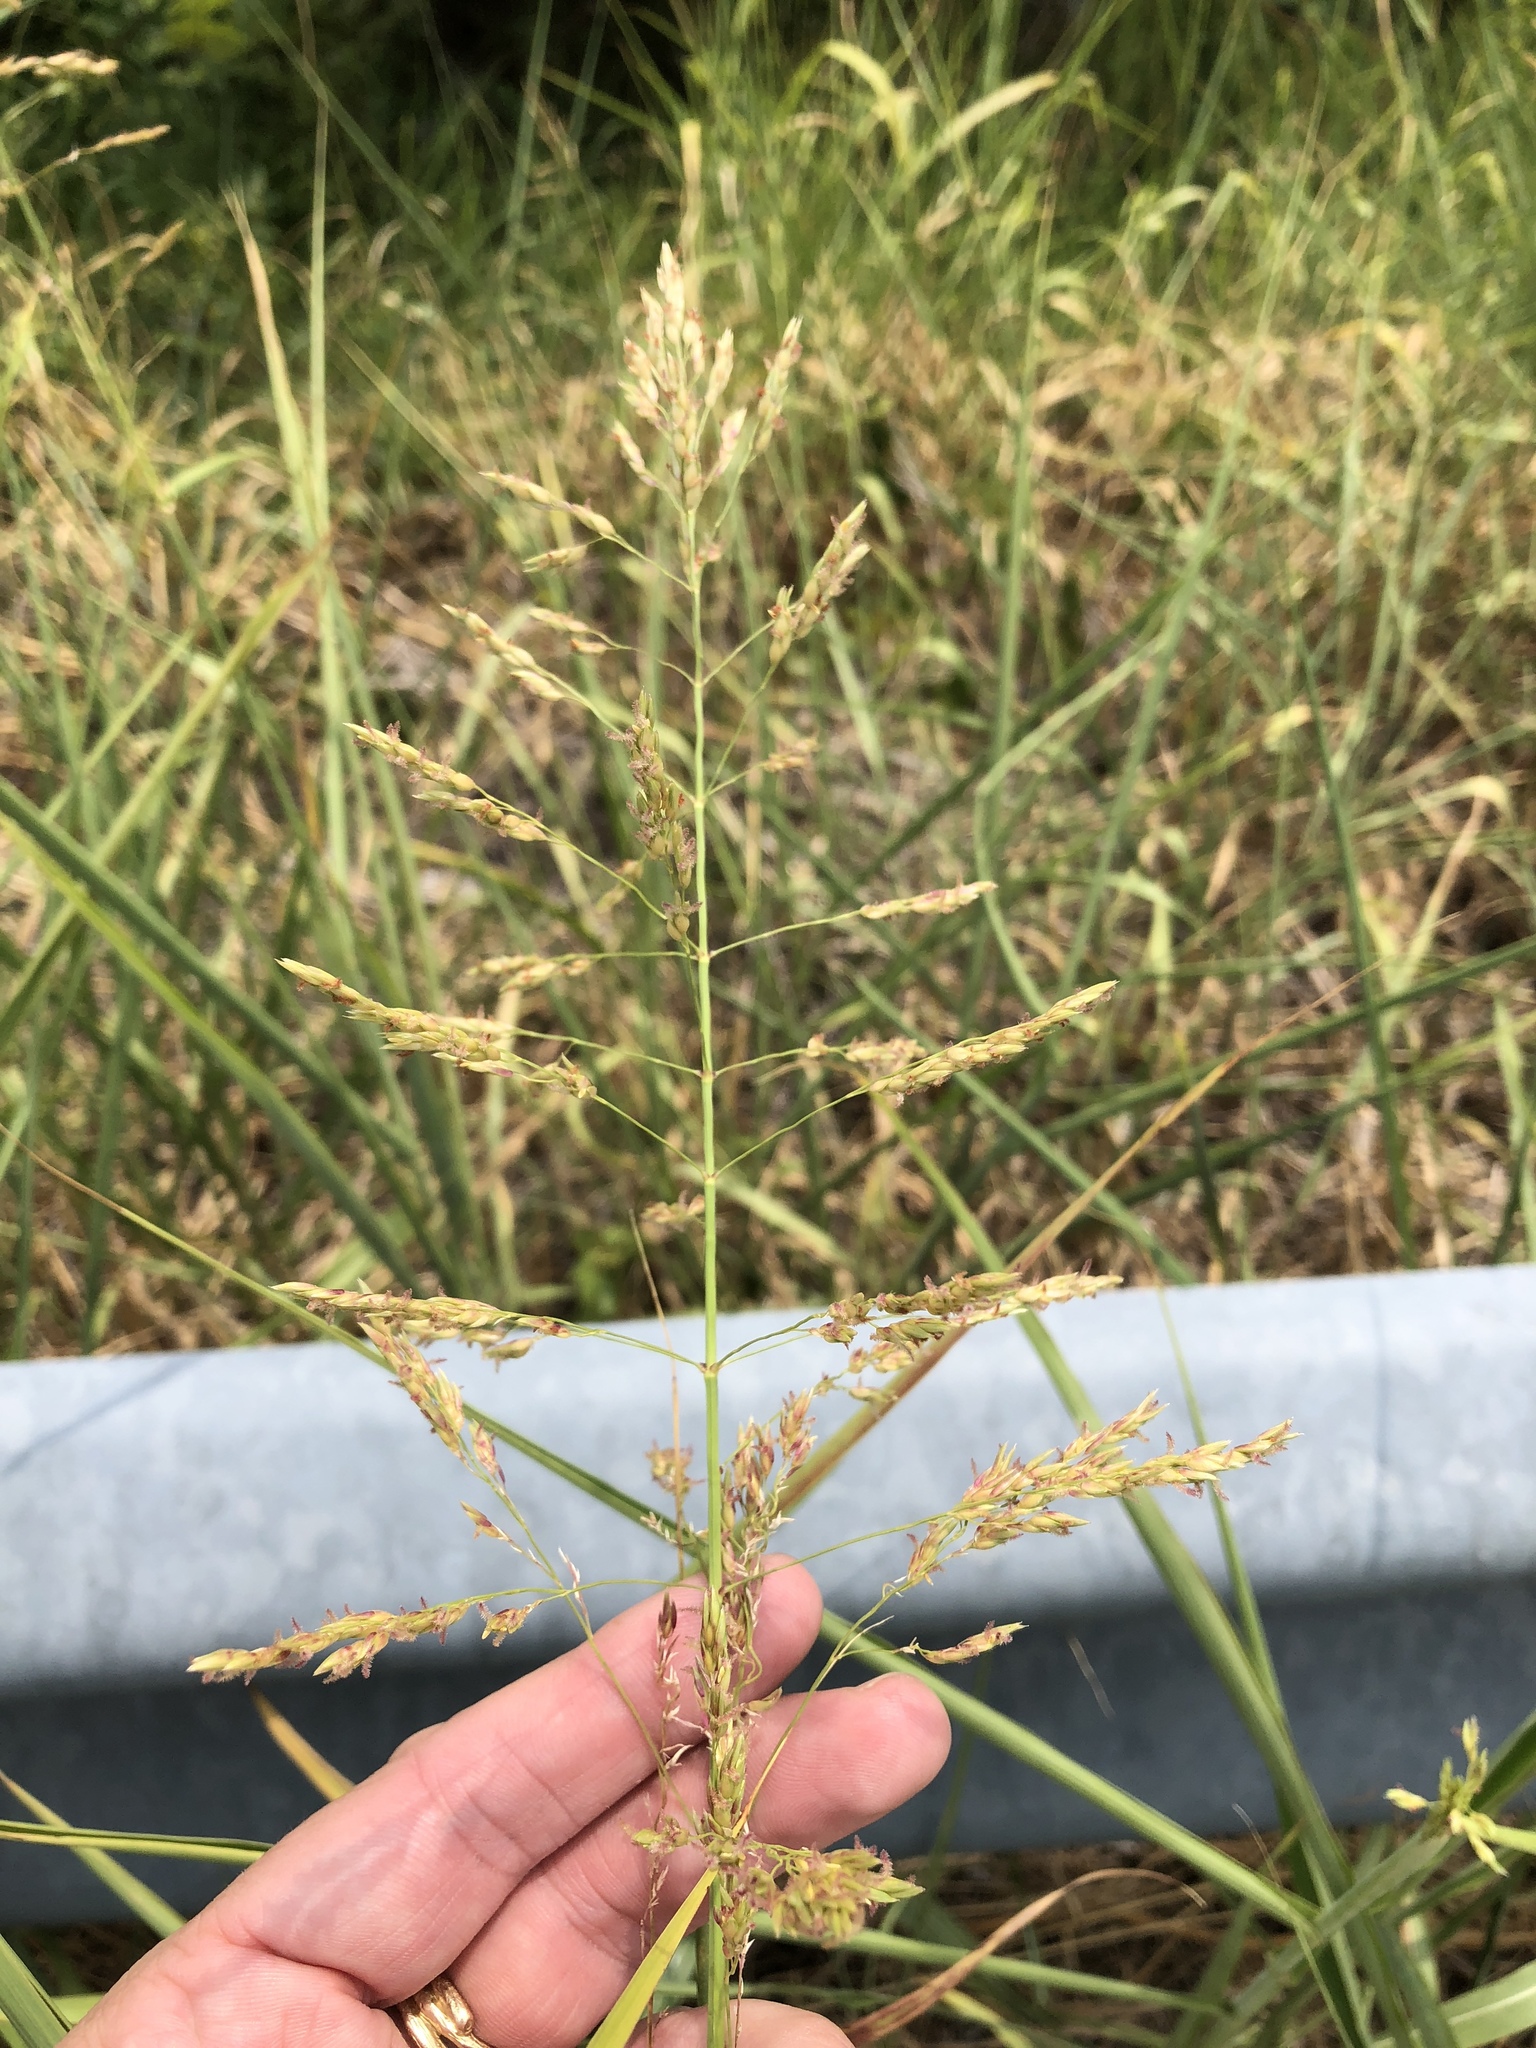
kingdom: Plantae
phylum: Tracheophyta
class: Liliopsida
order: Poales
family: Poaceae
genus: Sorghum
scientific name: Sorghum halepense
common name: Johnson-grass
